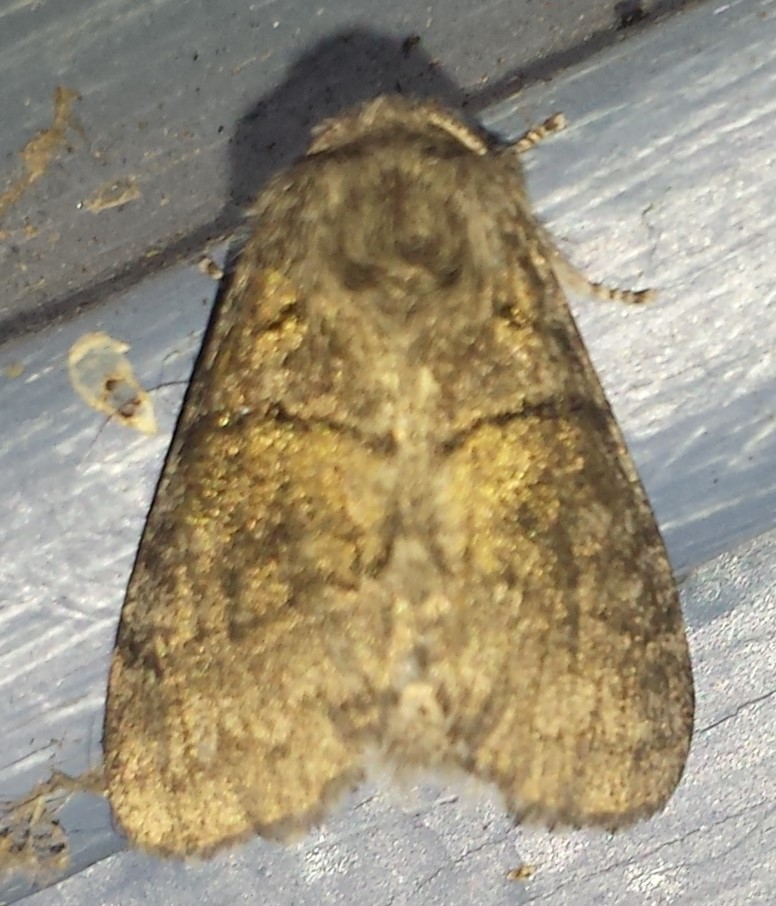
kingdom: Animalia
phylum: Arthropoda
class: Insecta
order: Lepidoptera
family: Notodontidae
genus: Gluphisia
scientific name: Gluphisia septentrionis
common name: Common gluphisia
